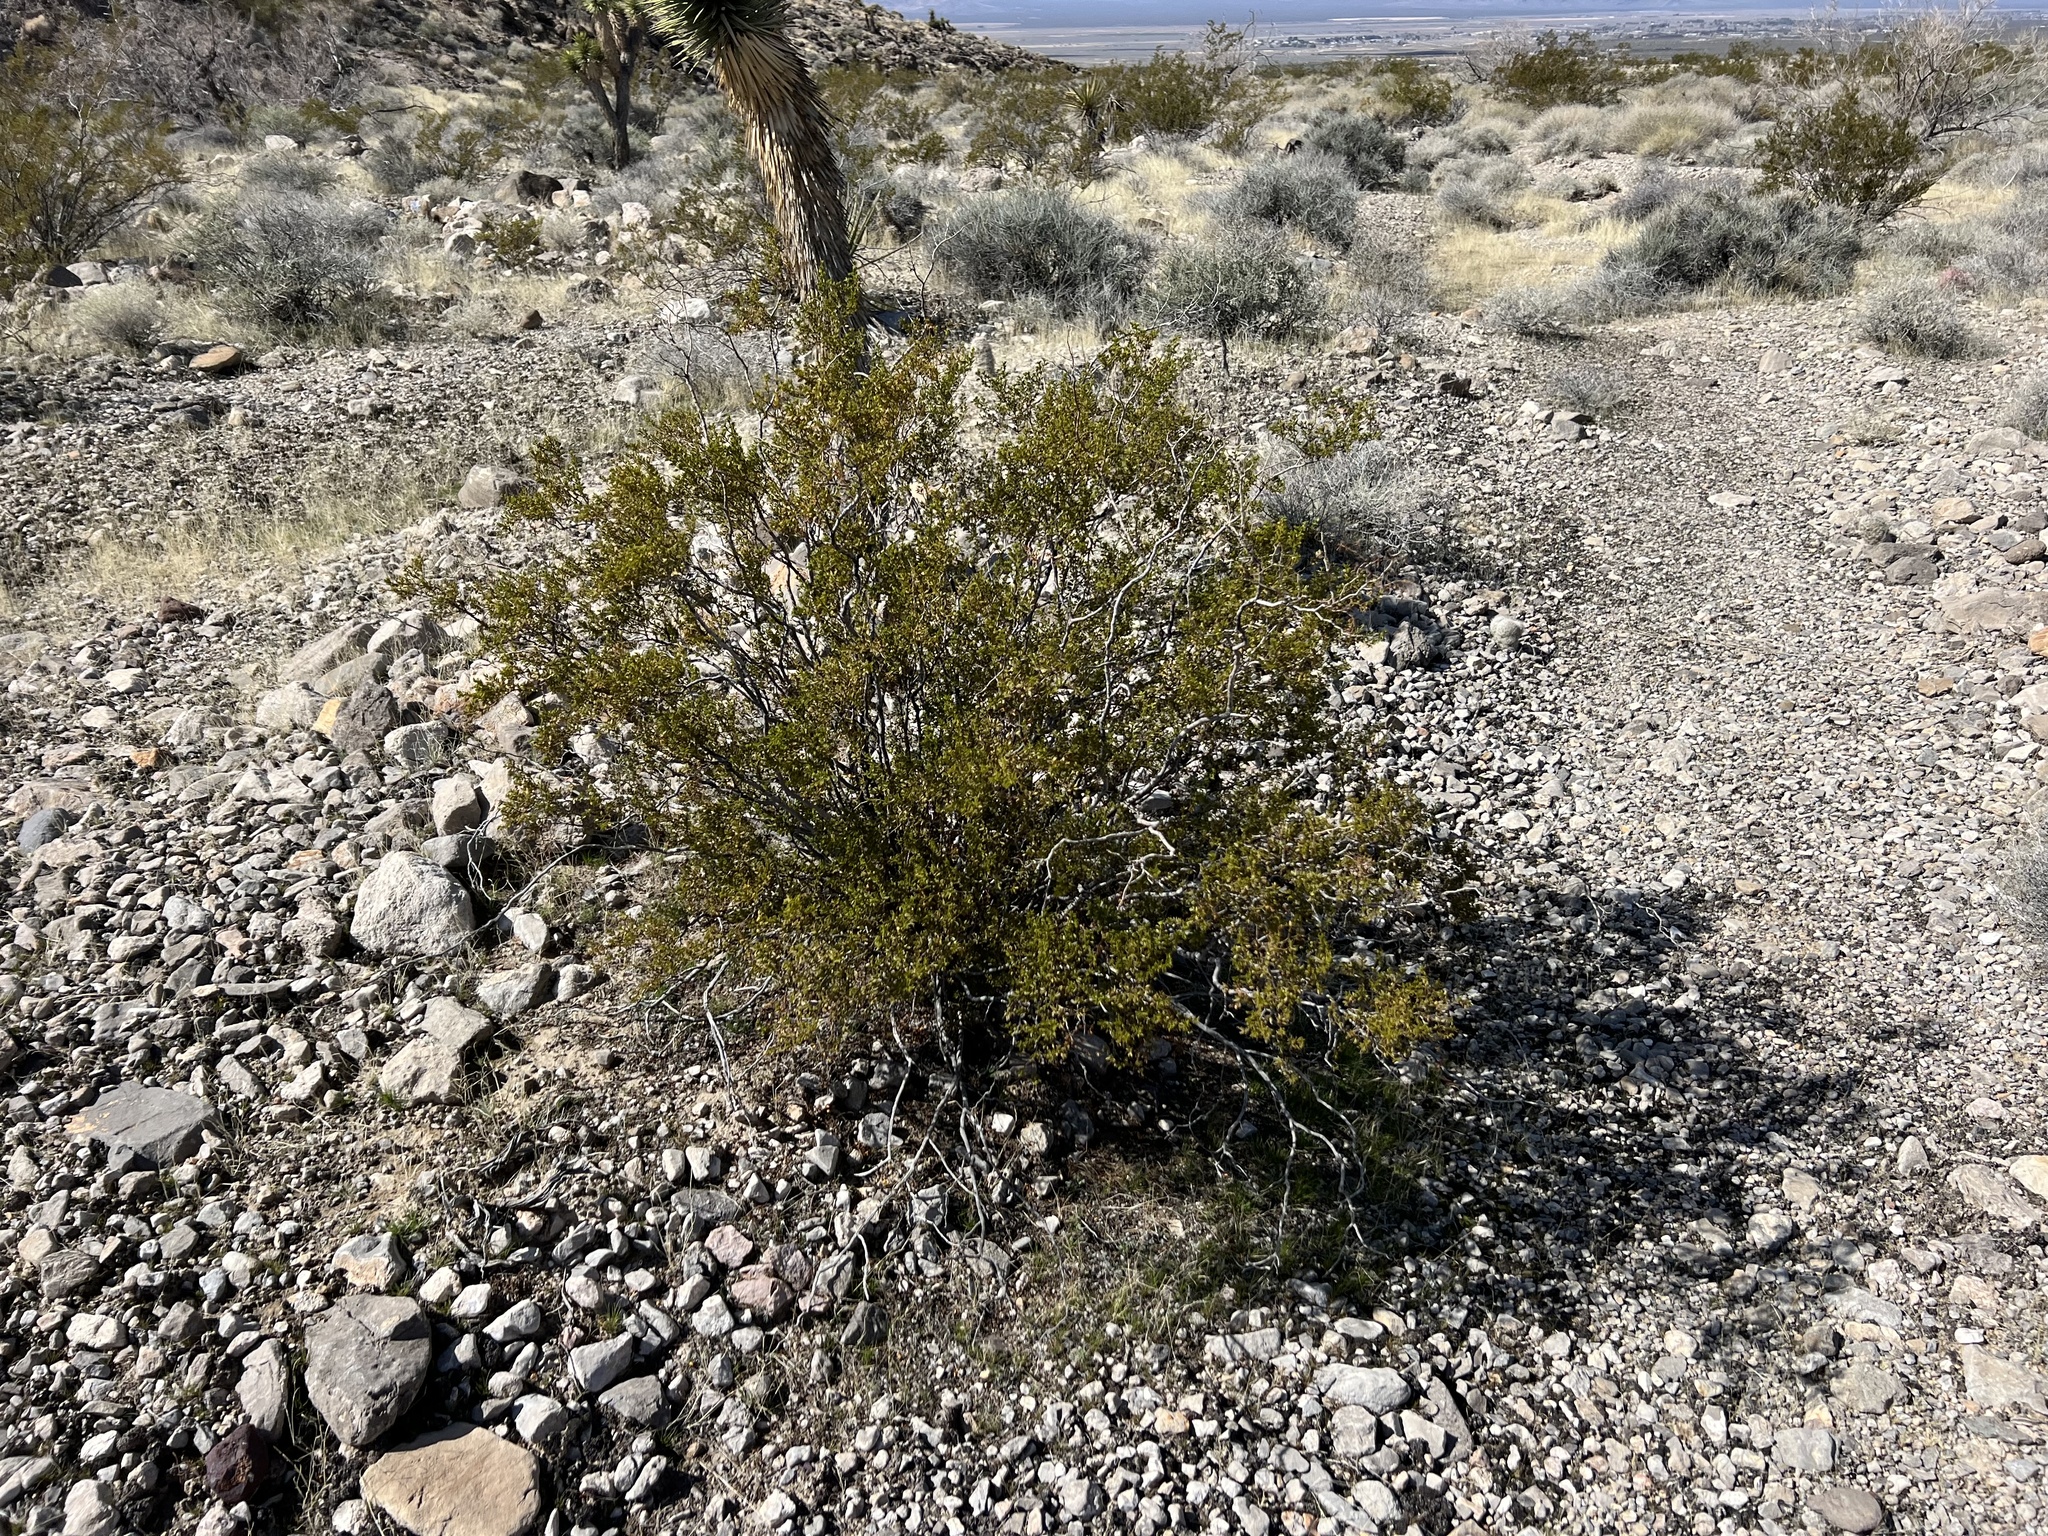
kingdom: Plantae
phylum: Tracheophyta
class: Magnoliopsida
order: Zygophyllales
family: Zygophyllaceae
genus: Larrea
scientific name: Larrea tridentata
